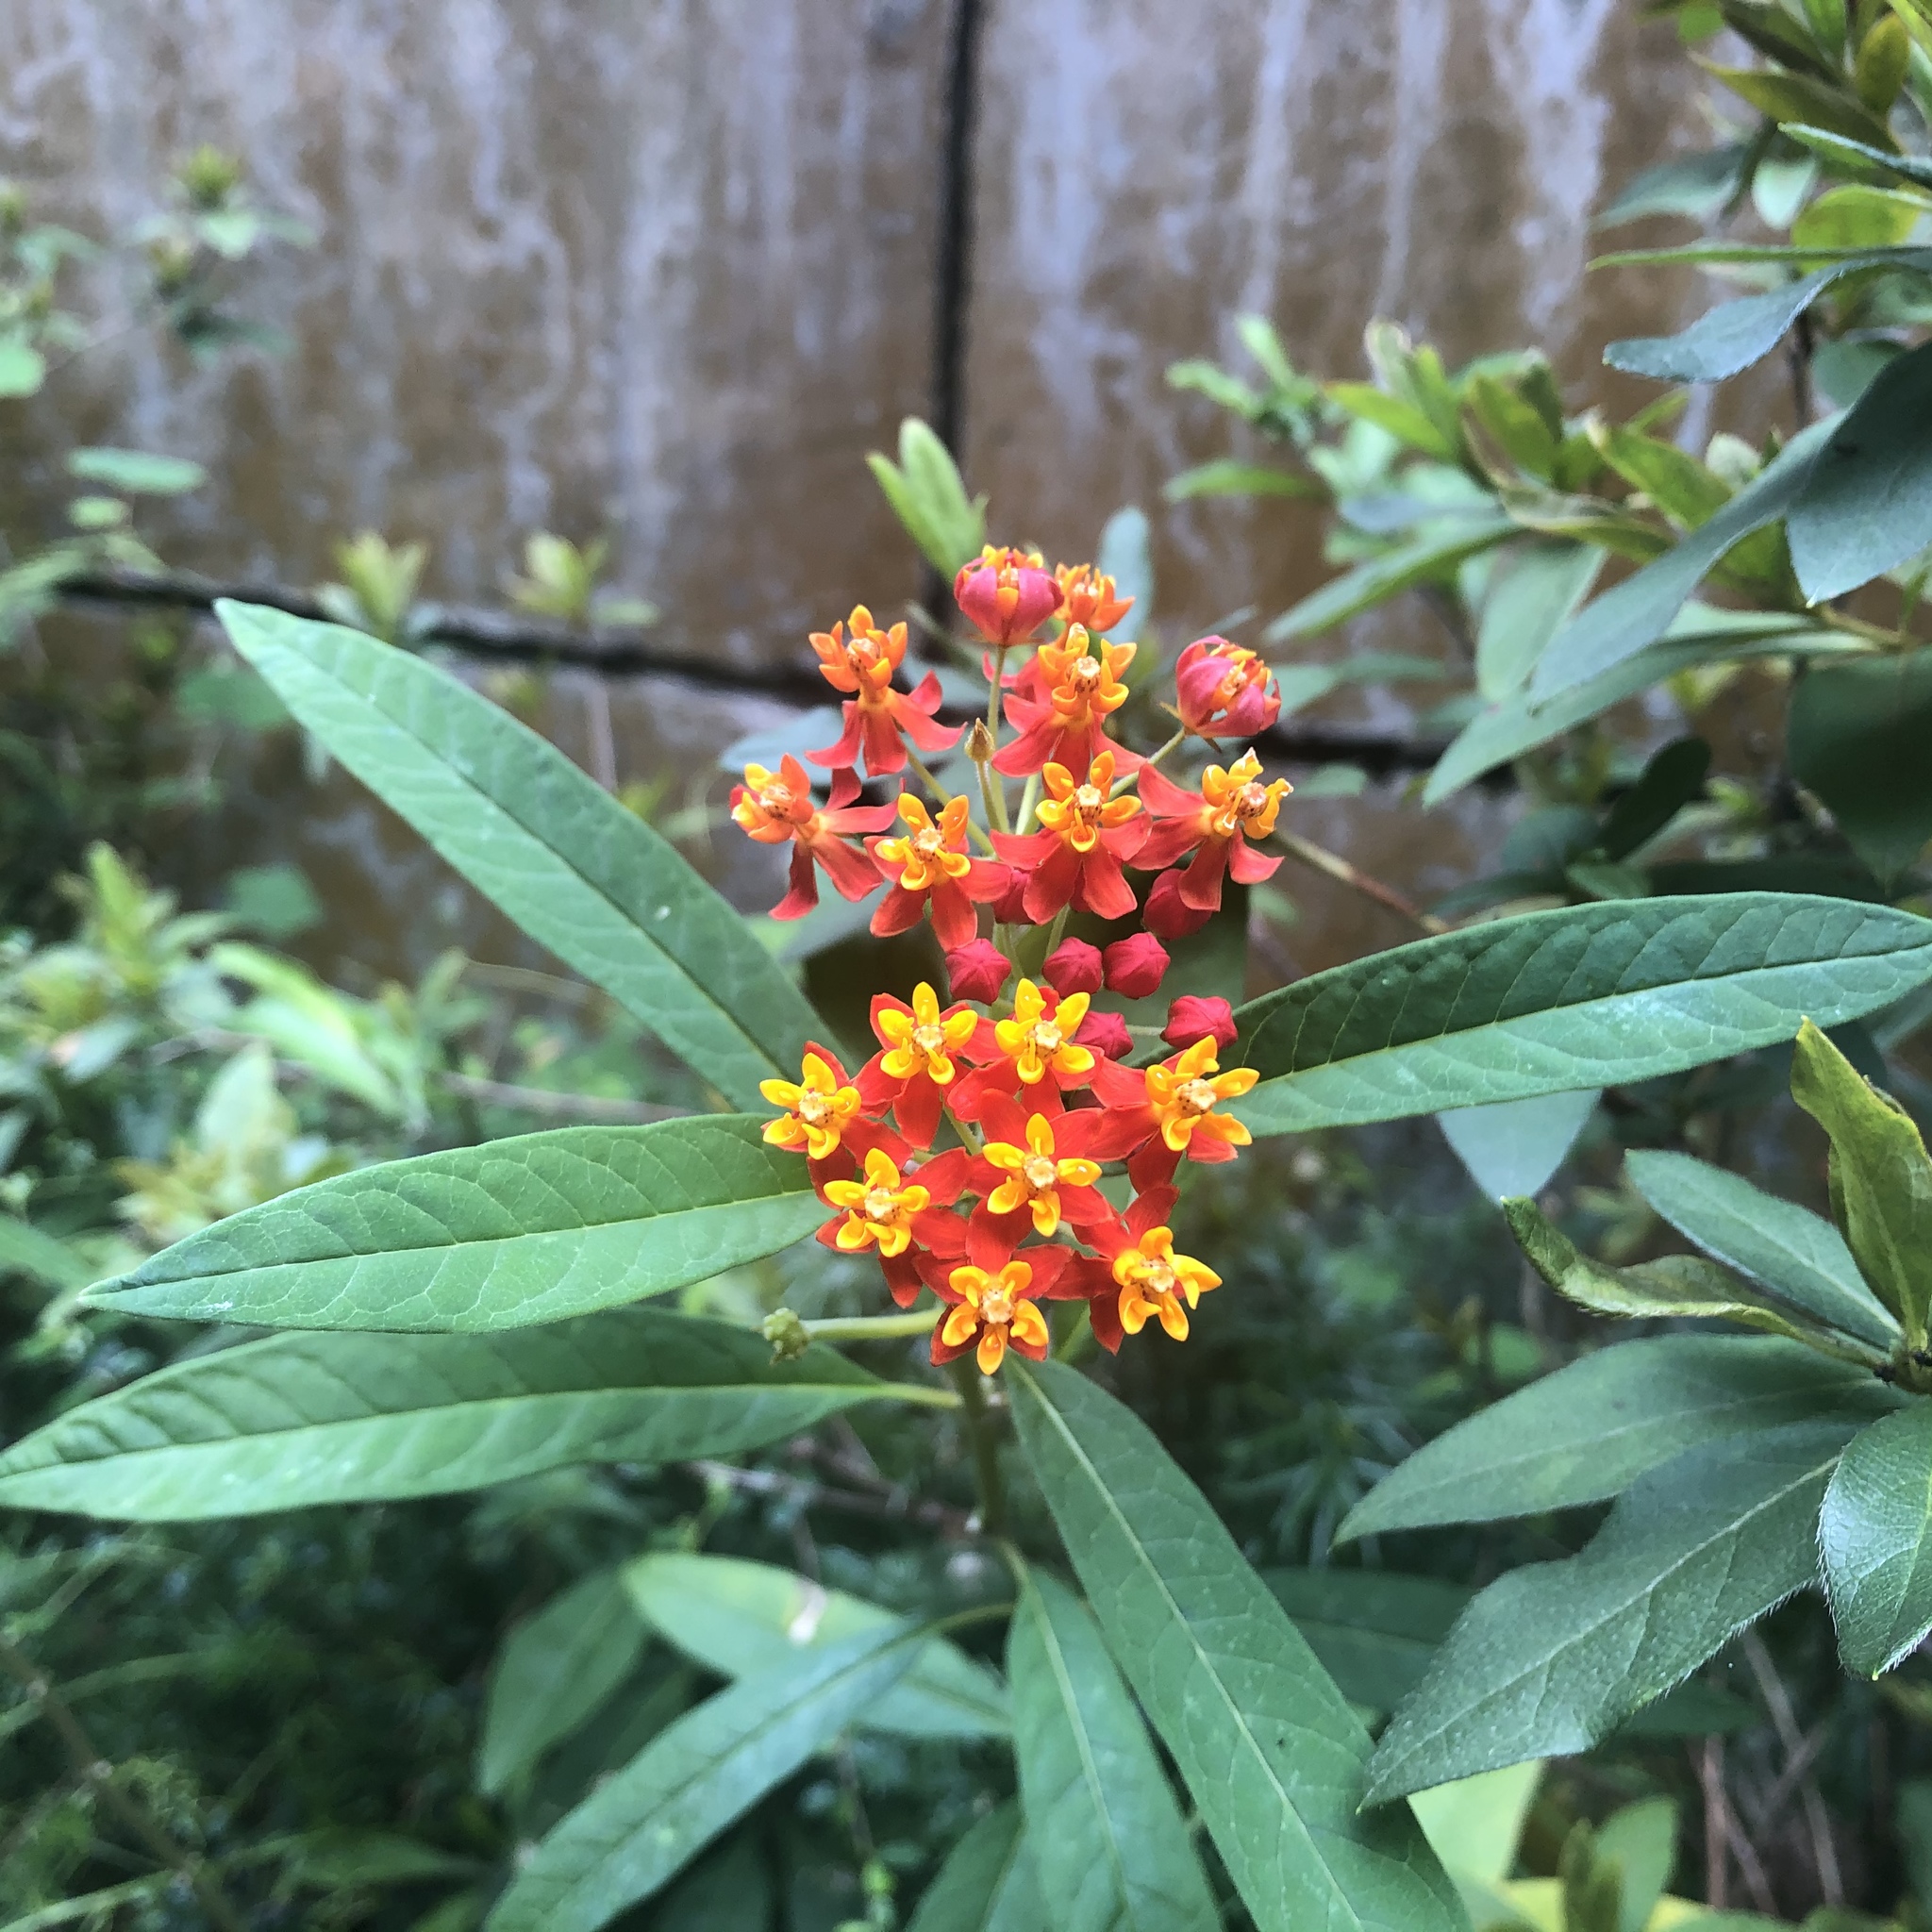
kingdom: Plantae
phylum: Tracheophyta
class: Magnoliopsida
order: Gentianales
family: Apocynaceae
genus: Asclepias
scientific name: Asclepias curassavica
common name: Bloodflower
